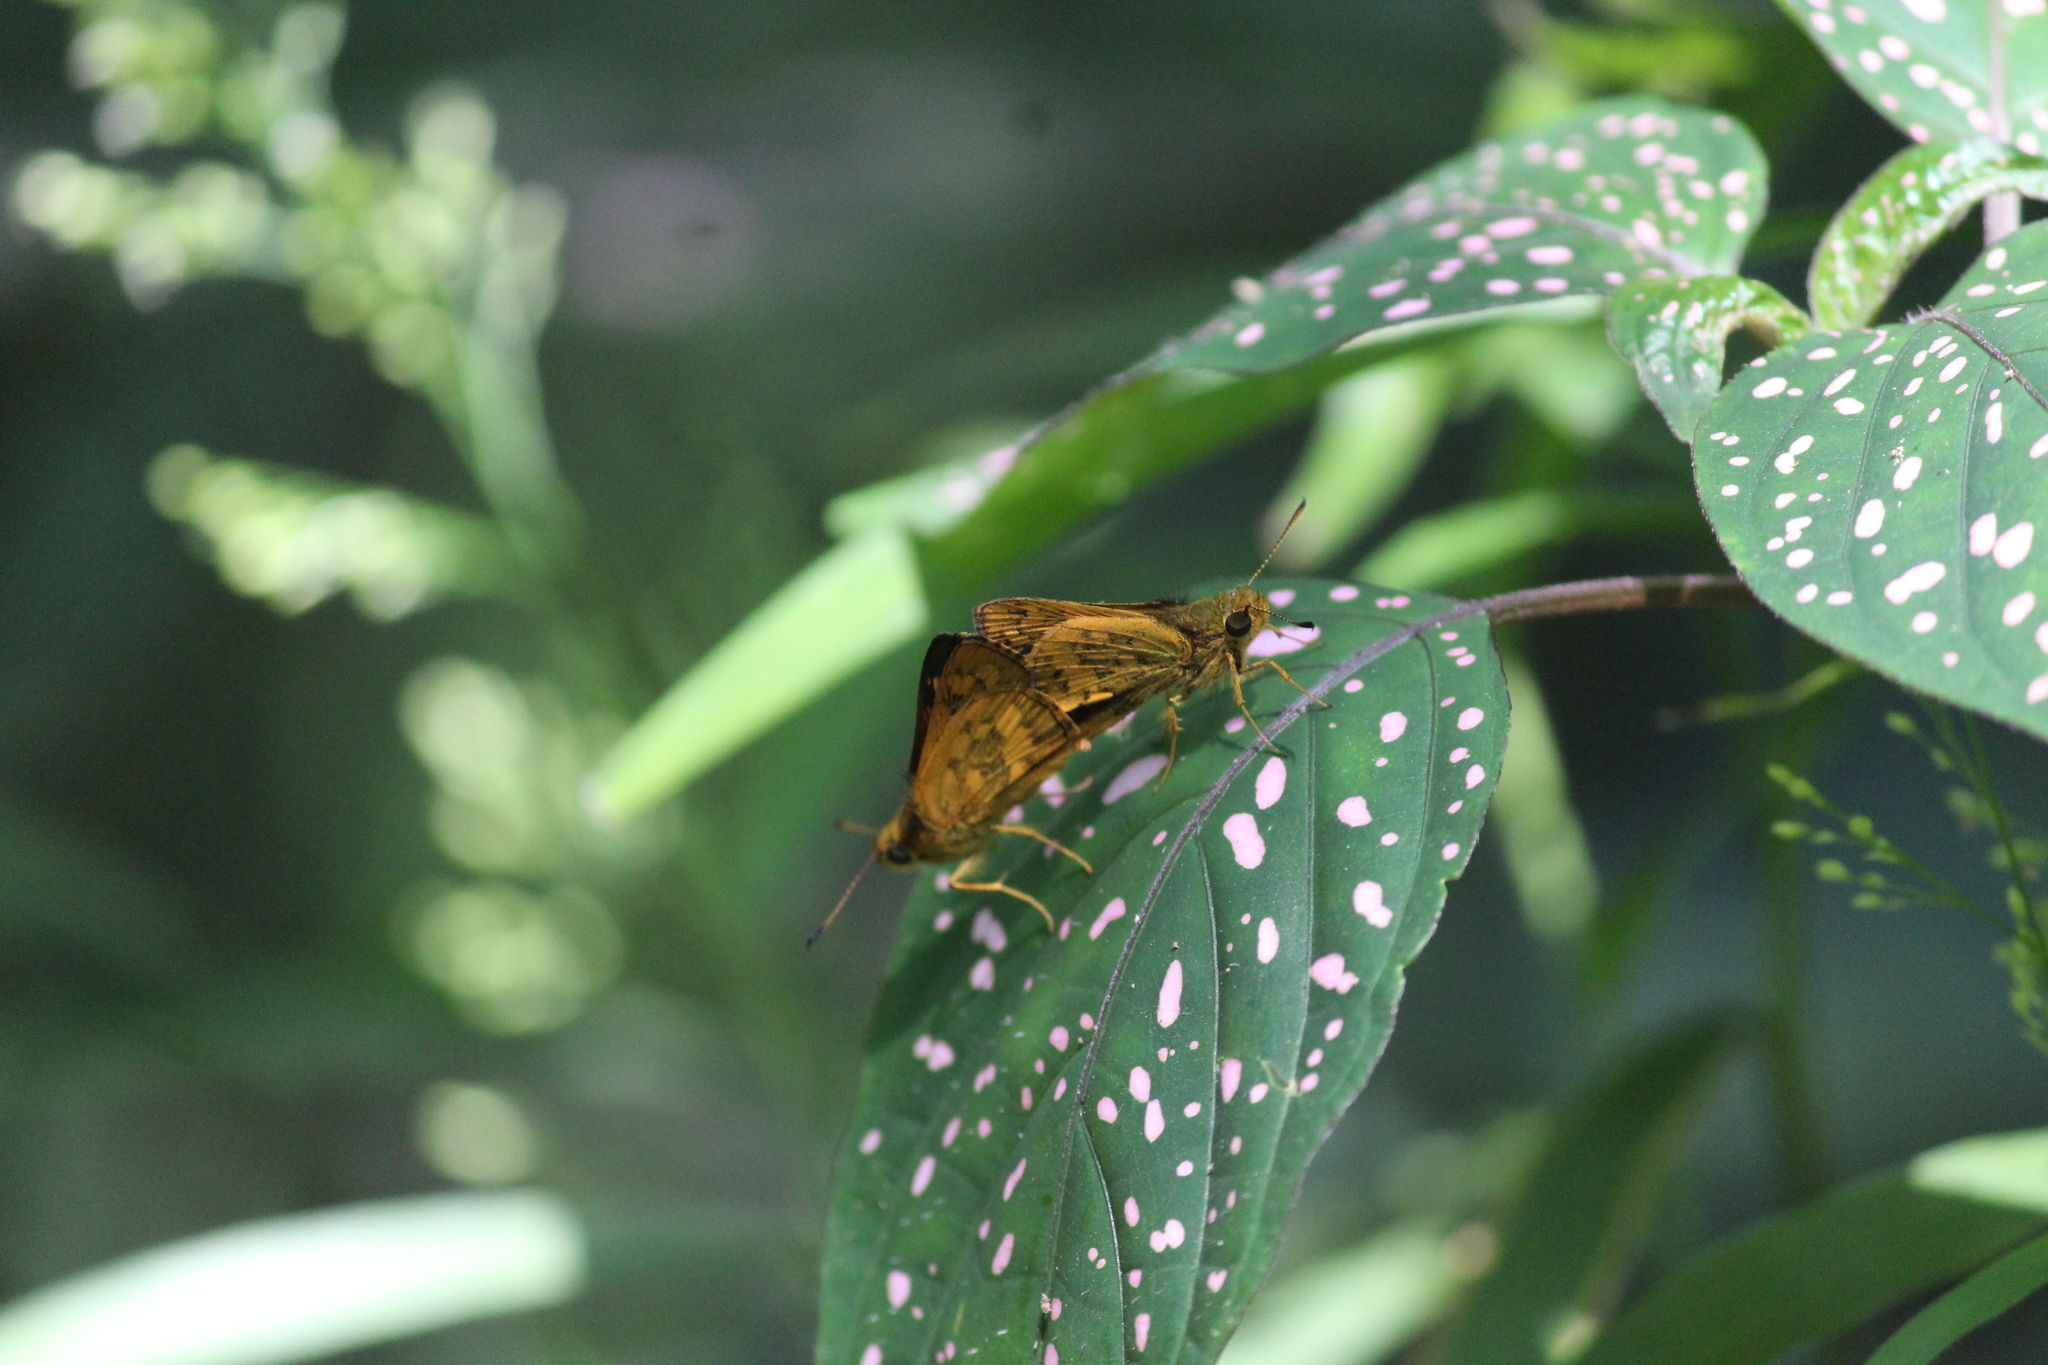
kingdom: Animalia
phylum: Arthropoda
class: Insecta
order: Lepidoptera
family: Hesperiidae
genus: Potanthus
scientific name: Potanthus pseudomaesa
